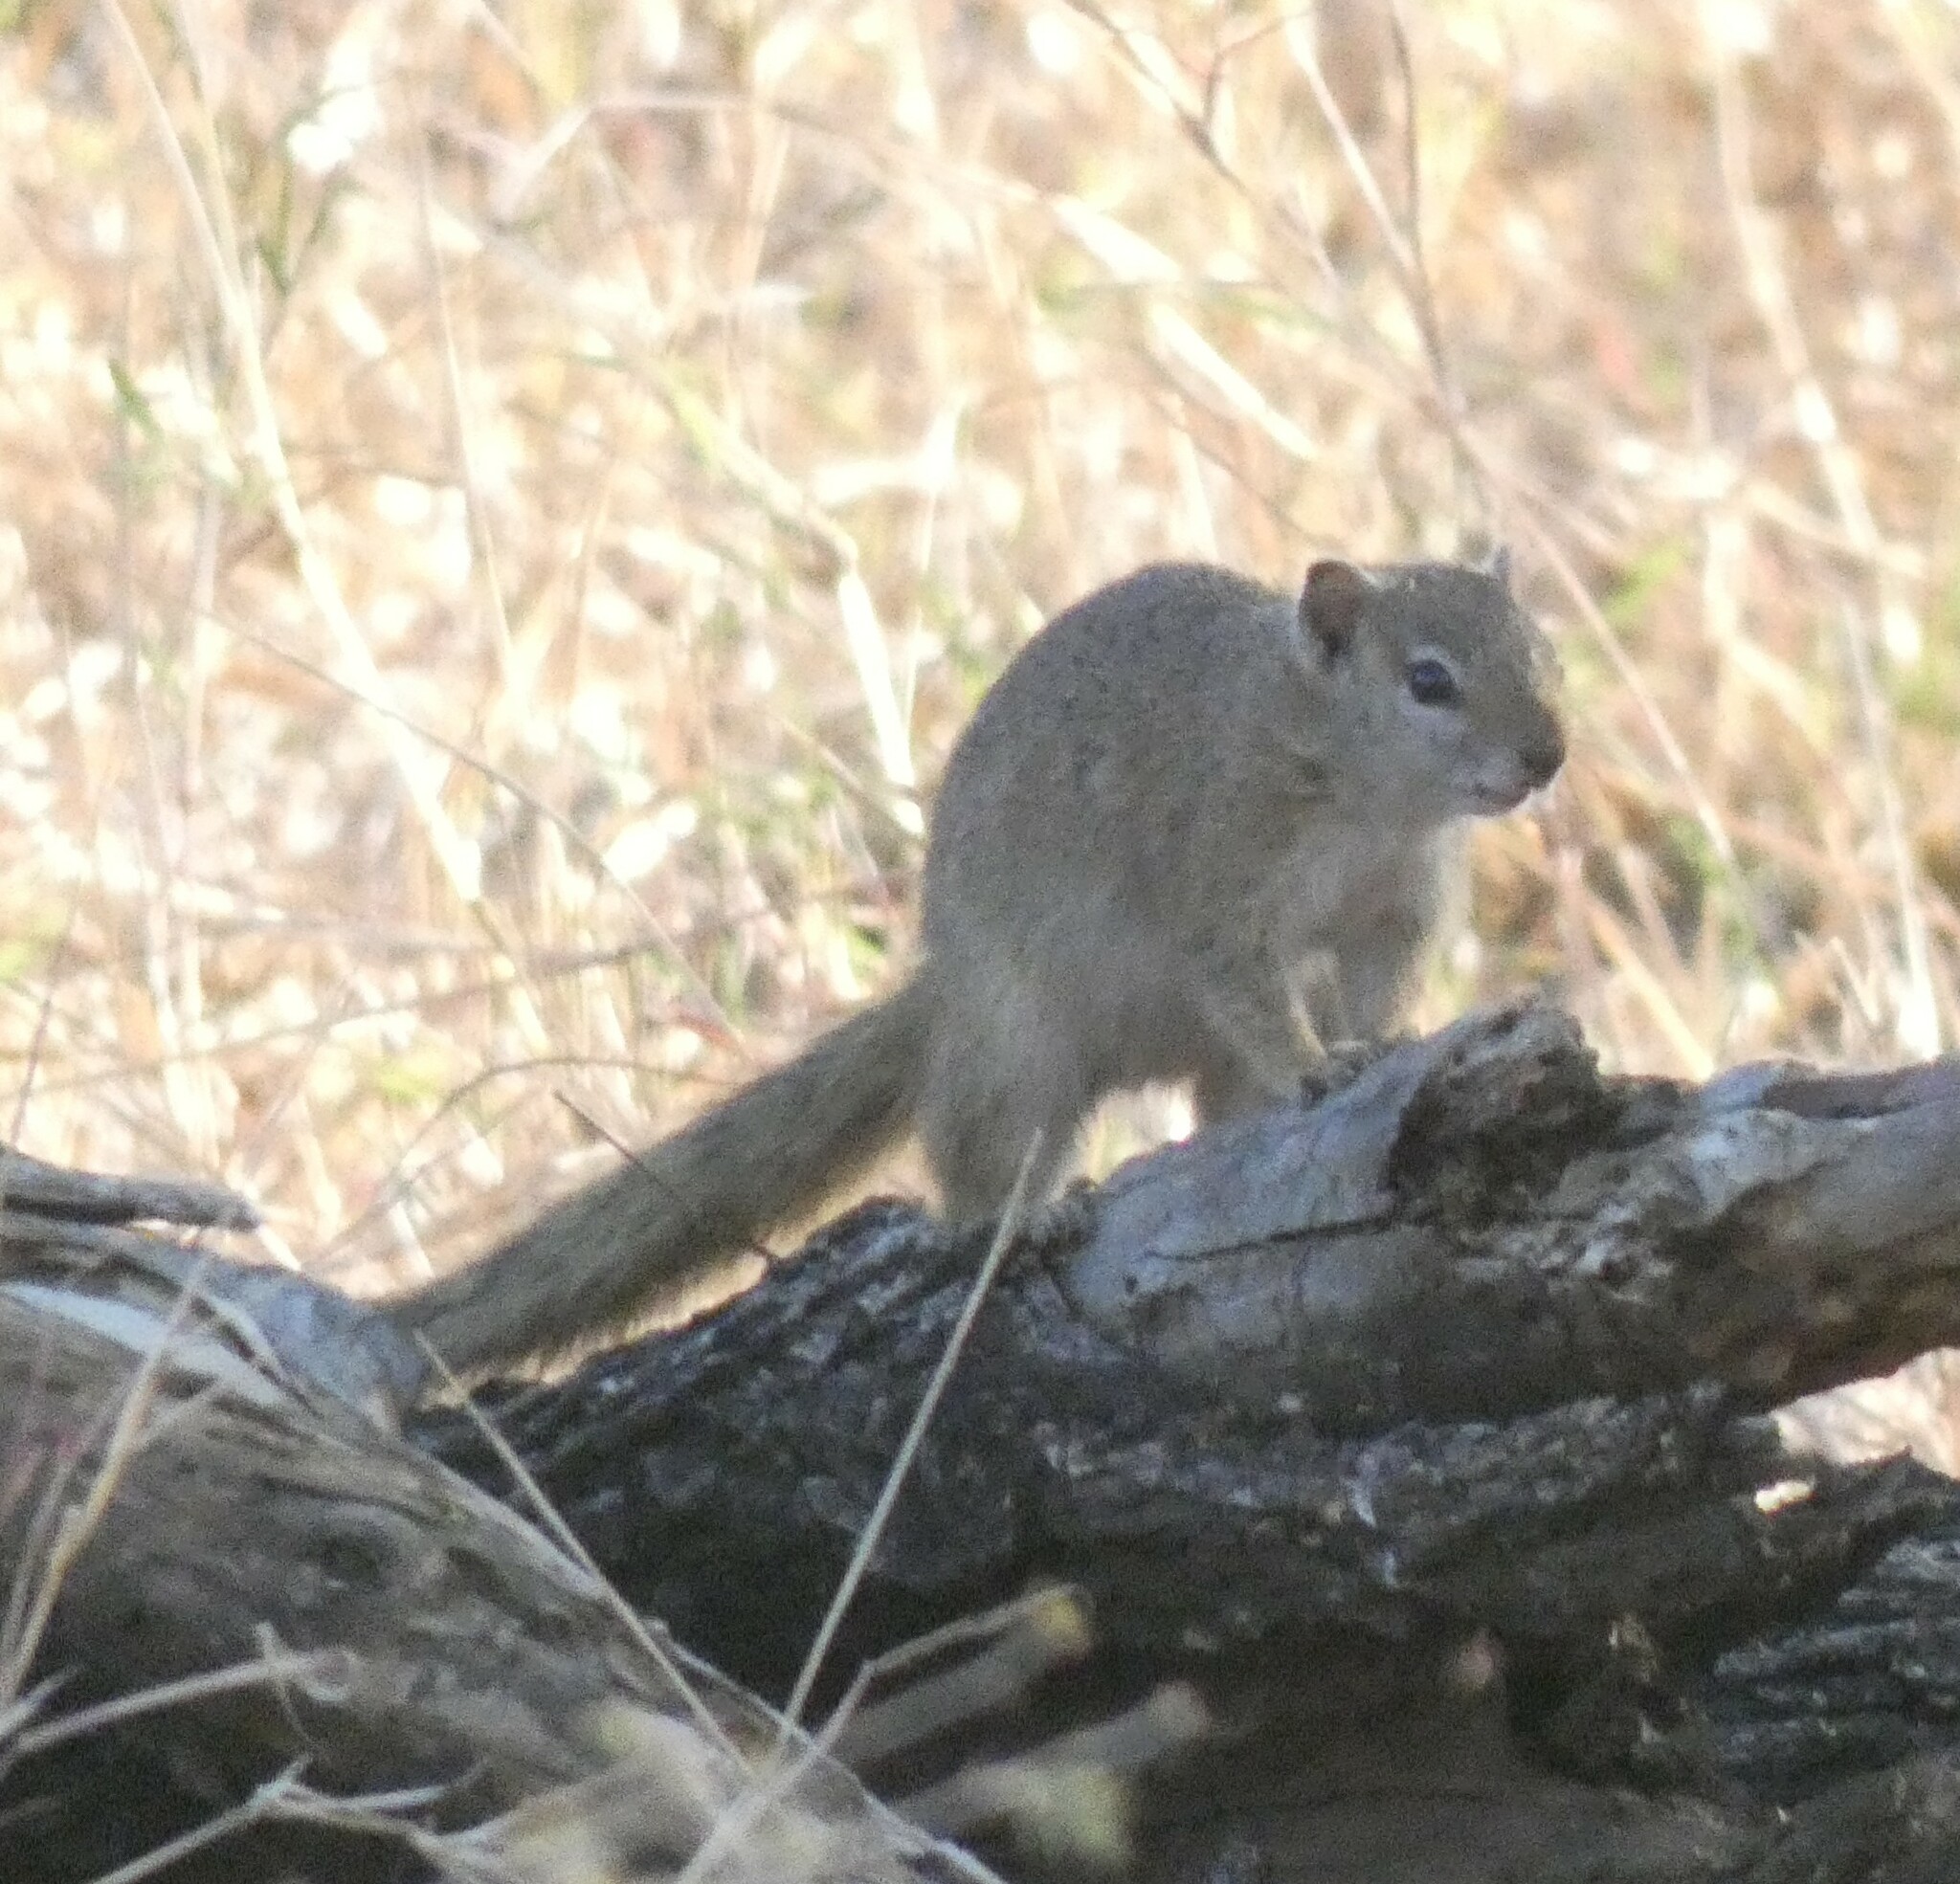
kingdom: Animalia
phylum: Chordata
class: Mammalia
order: Rodentia
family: Sciuridae
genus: Paraxerus
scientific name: Paraxerus cepapi
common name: Smith's bush squirrel
